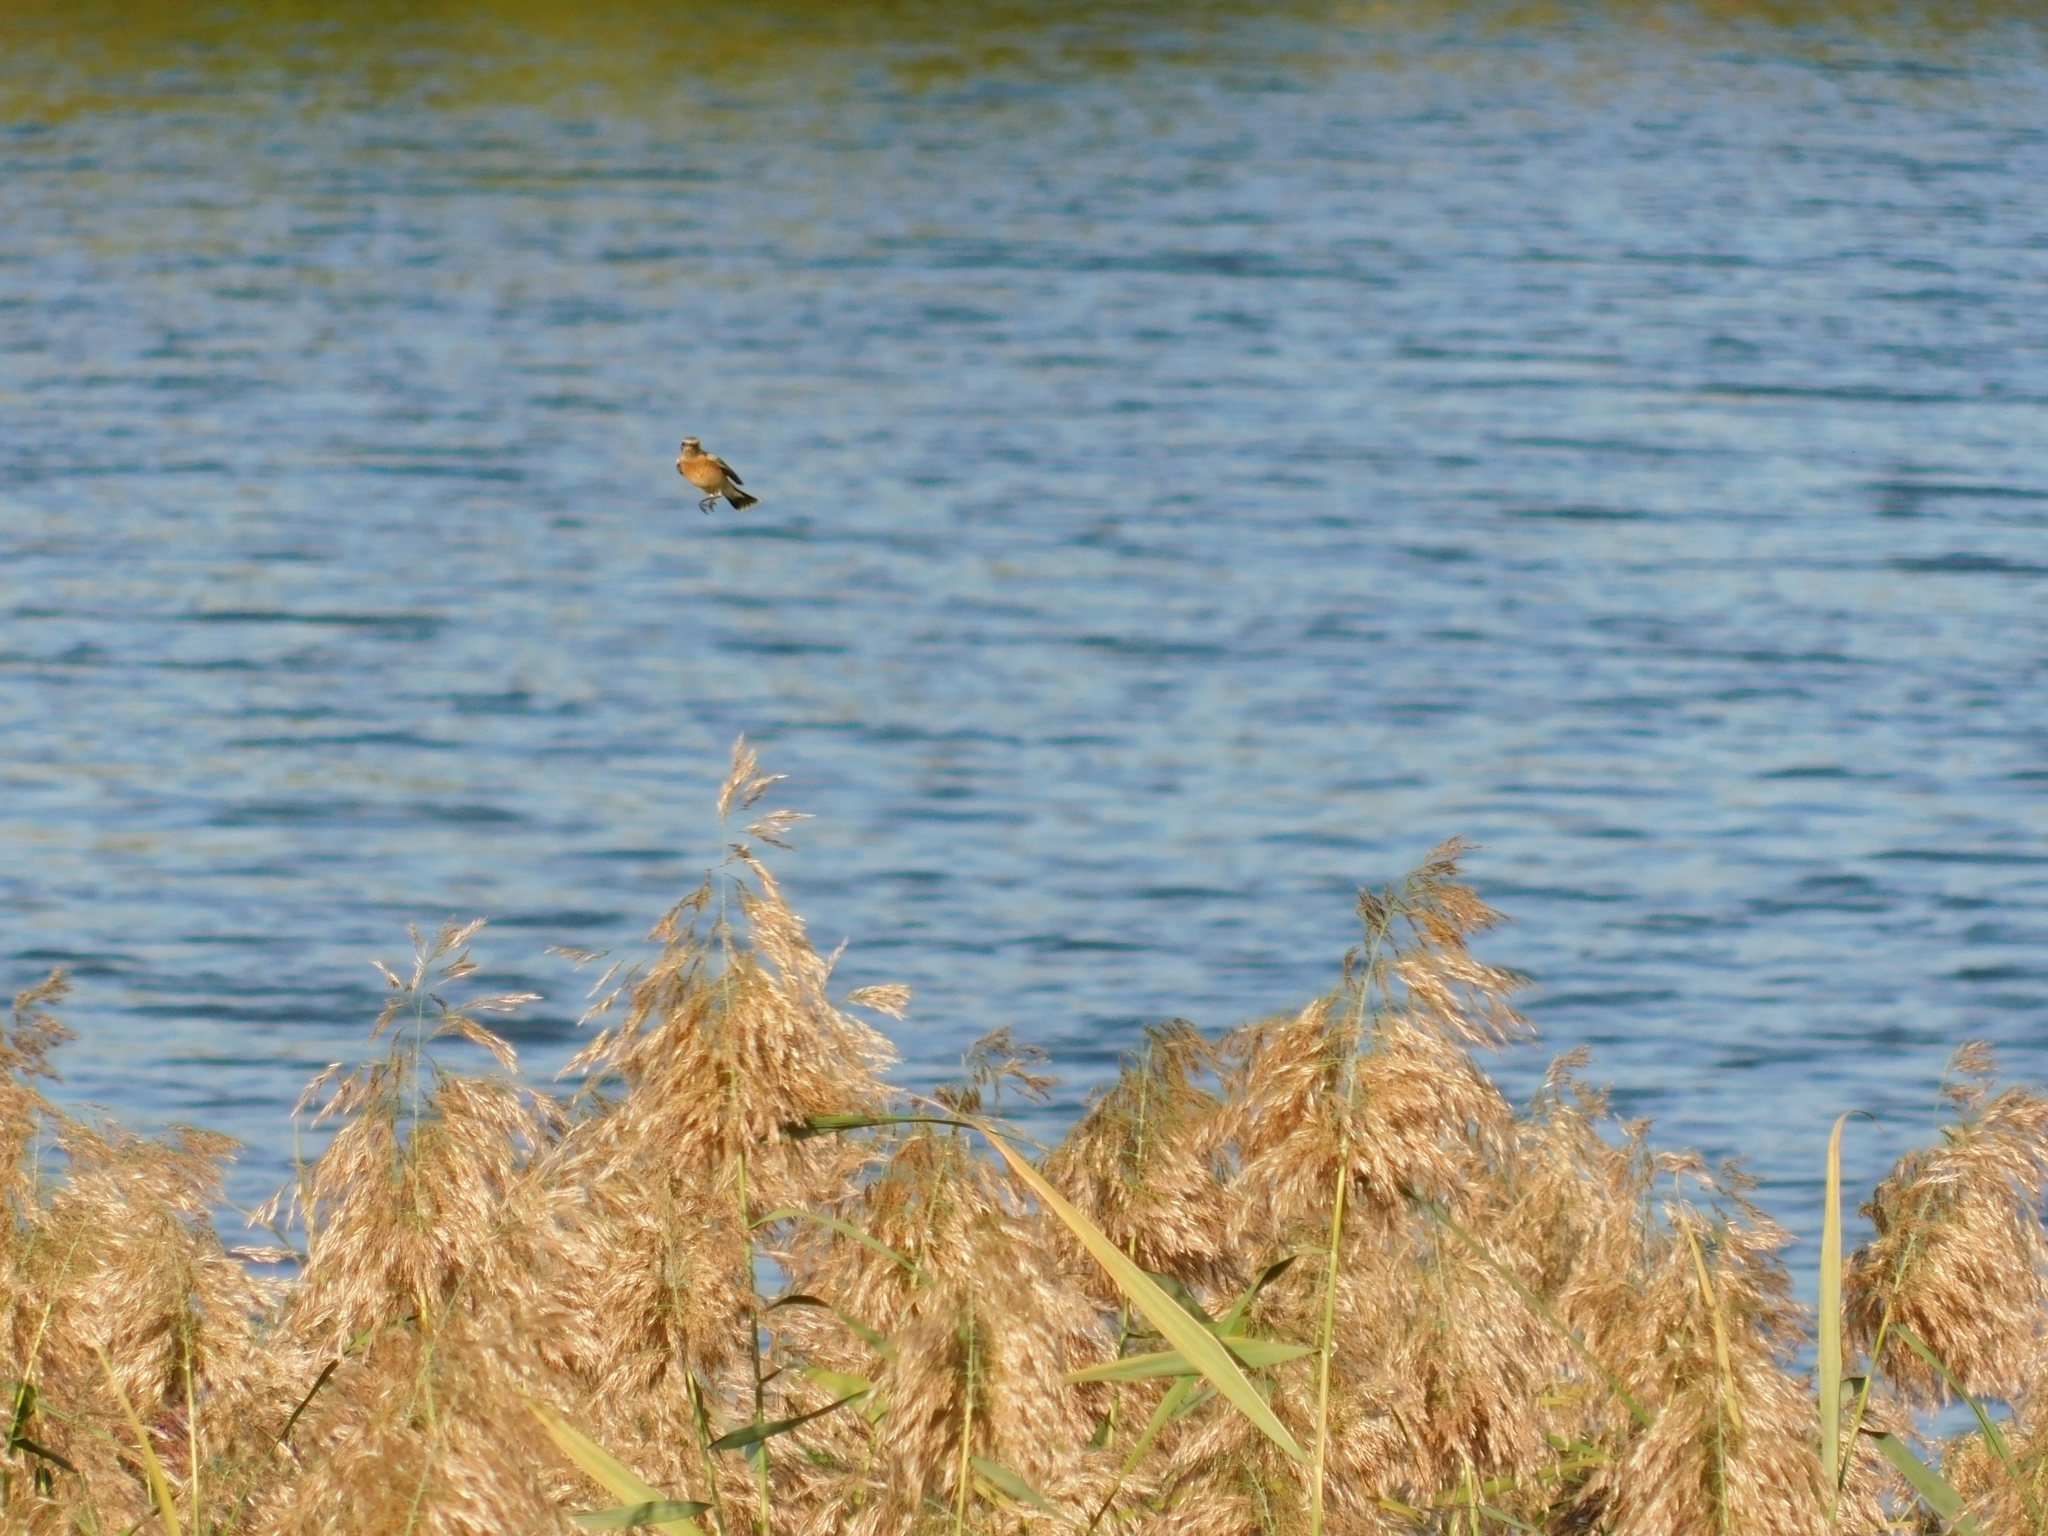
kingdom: Animalia
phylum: Chordata
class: Aves
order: Passeriformes
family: Muscicapidae
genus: Saxicola
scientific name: Saxicola rubetra
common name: Whinchat
